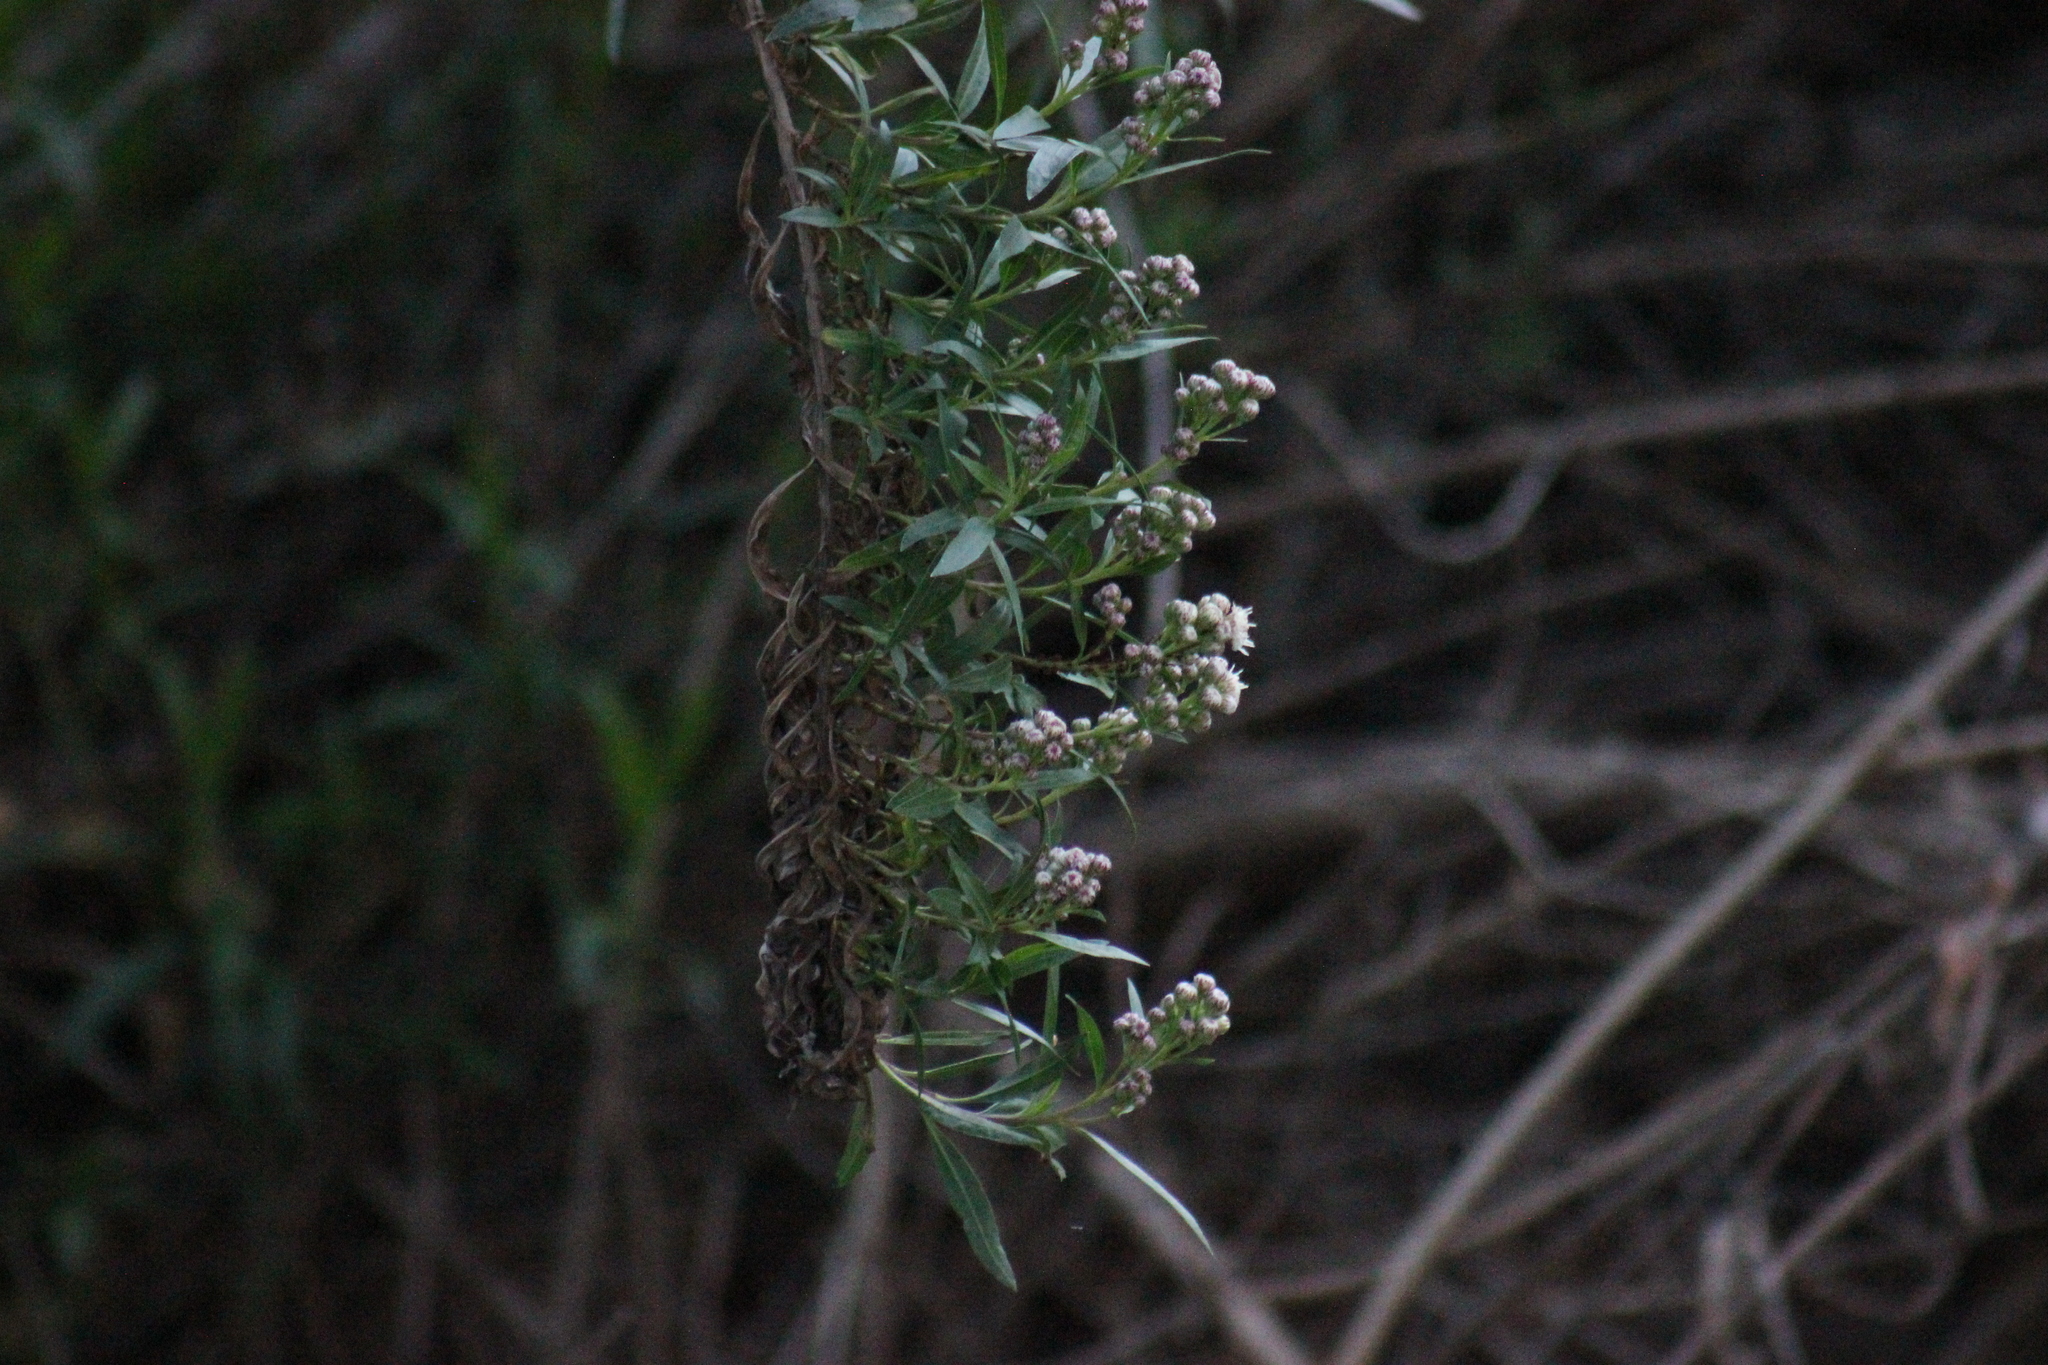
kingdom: Plantae
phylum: Tracheophyta
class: Magnoliopsida
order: Asterales
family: Asteraceae
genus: Baccharis
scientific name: Baccharis salicifolia
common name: Sticky baccharis
